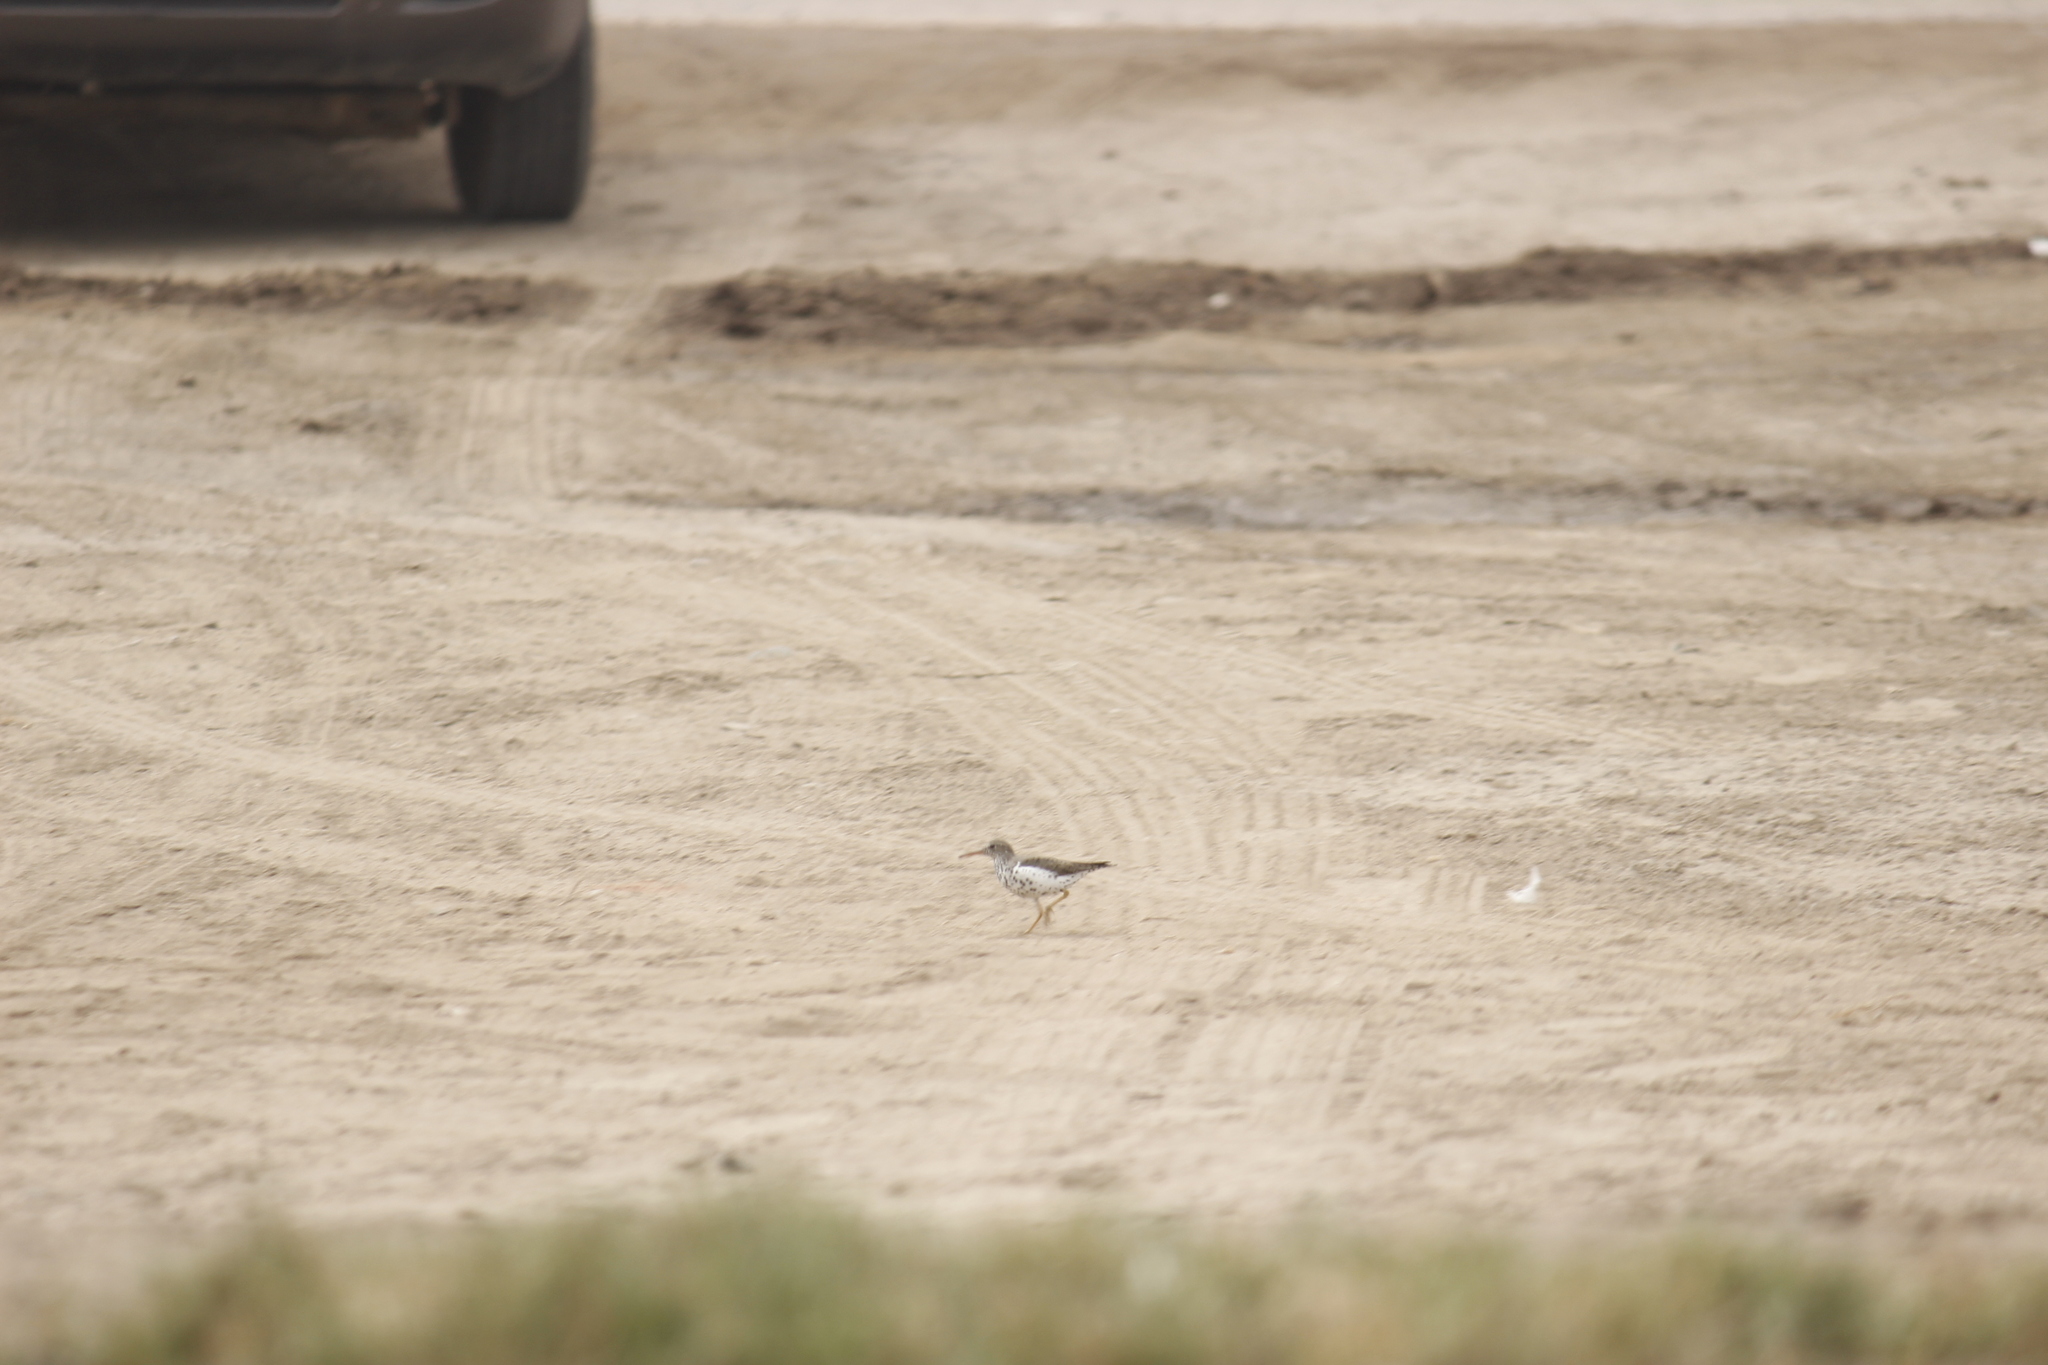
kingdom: Animalia
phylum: Chordata
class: Aves
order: Charadriiformes
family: Scolopacidae
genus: Actitis
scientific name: Actitis macularius
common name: Spotted sandpiper
